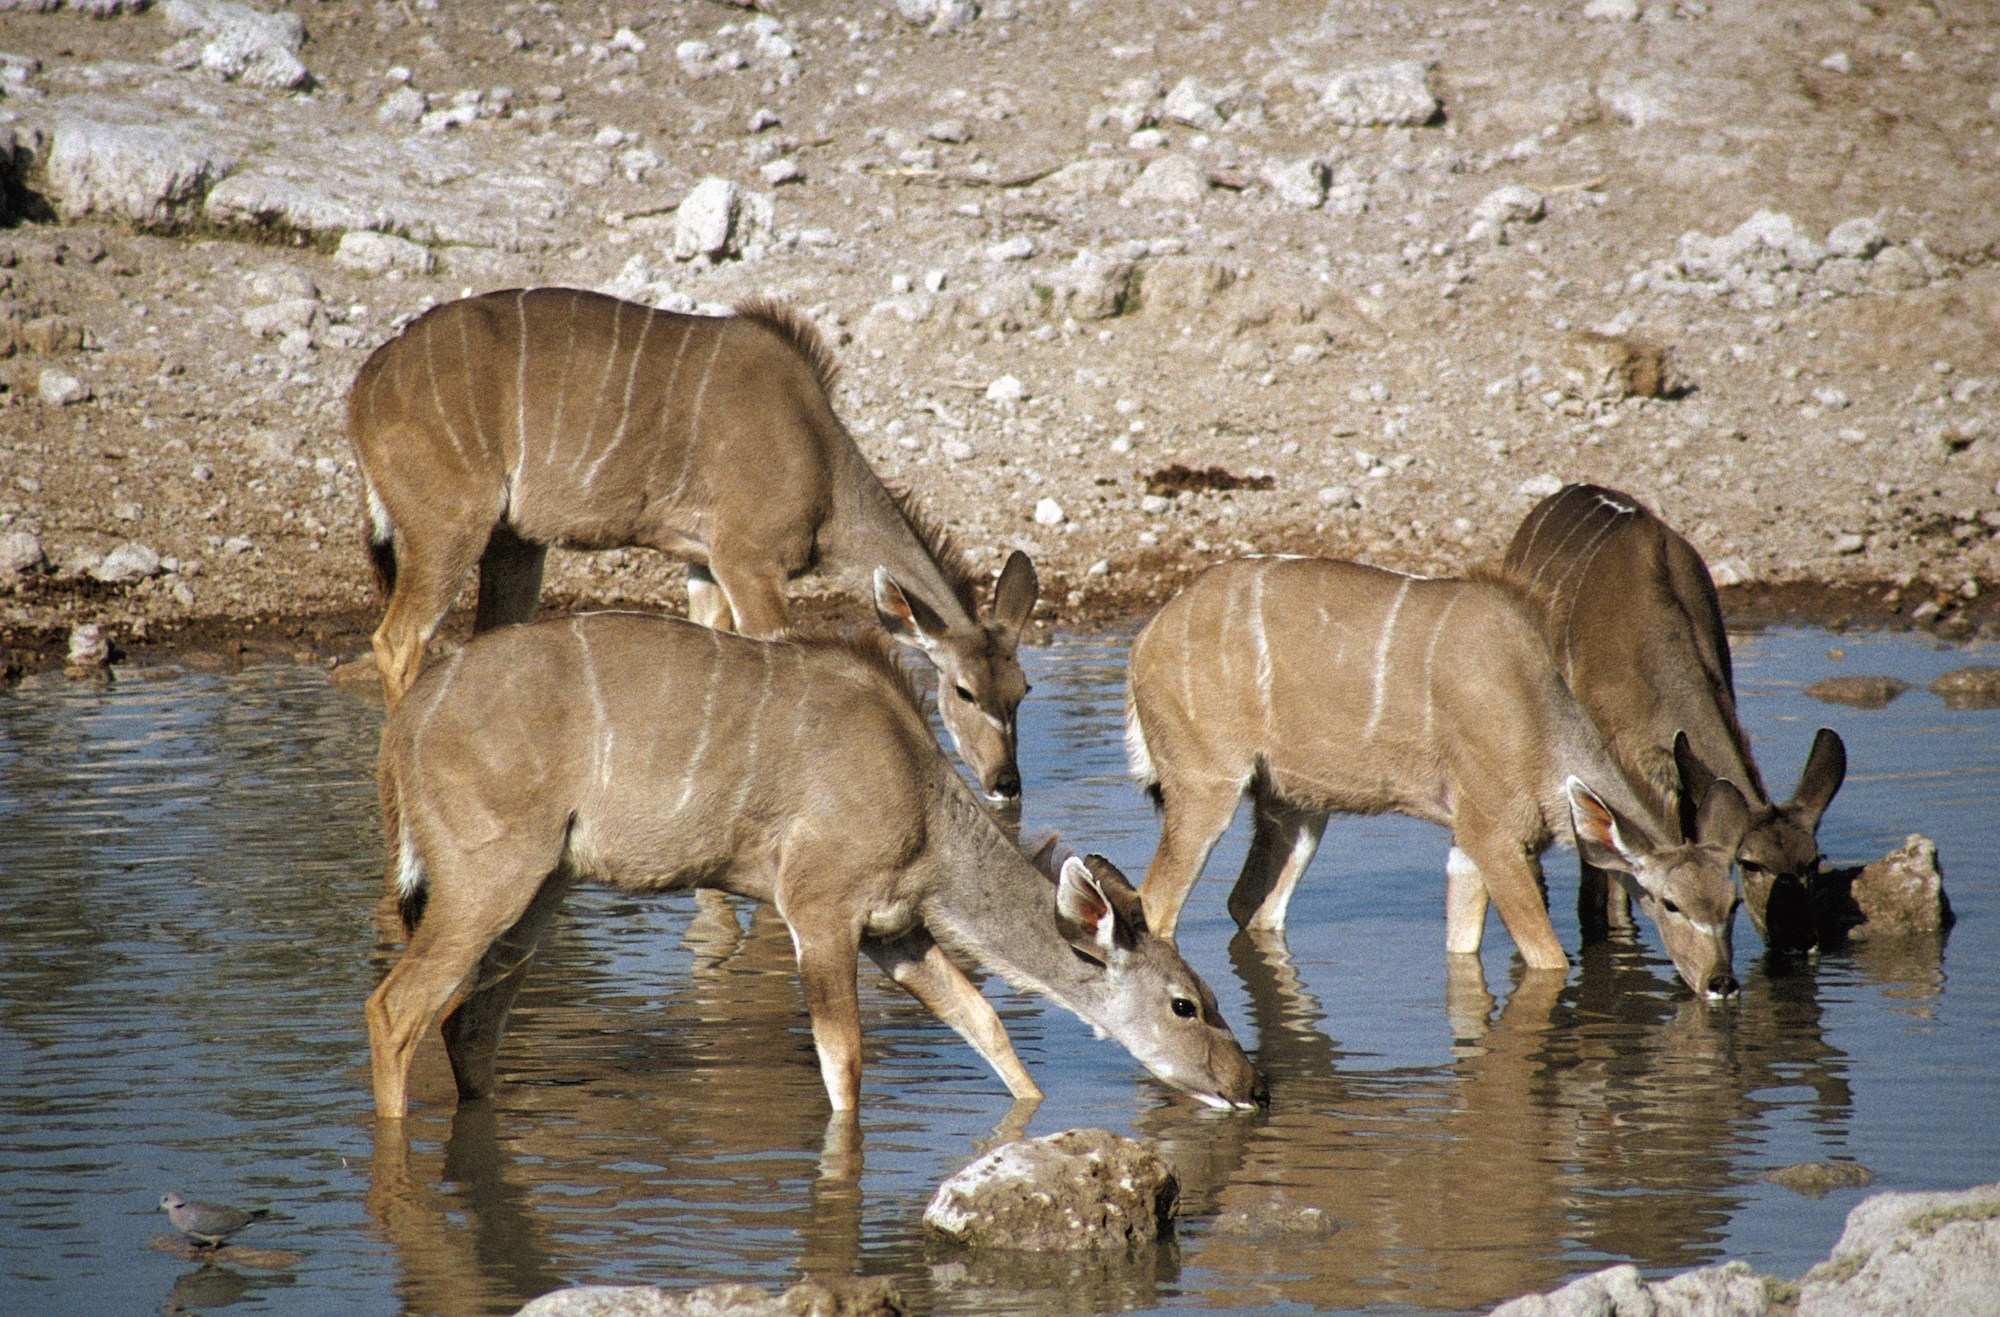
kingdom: Animalia
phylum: Chordata
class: Mammalia
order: Artiodactyla
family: Bovidae
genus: Tragelaphus
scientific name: Tragelaphus strepsiceros
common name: Greater kudu
